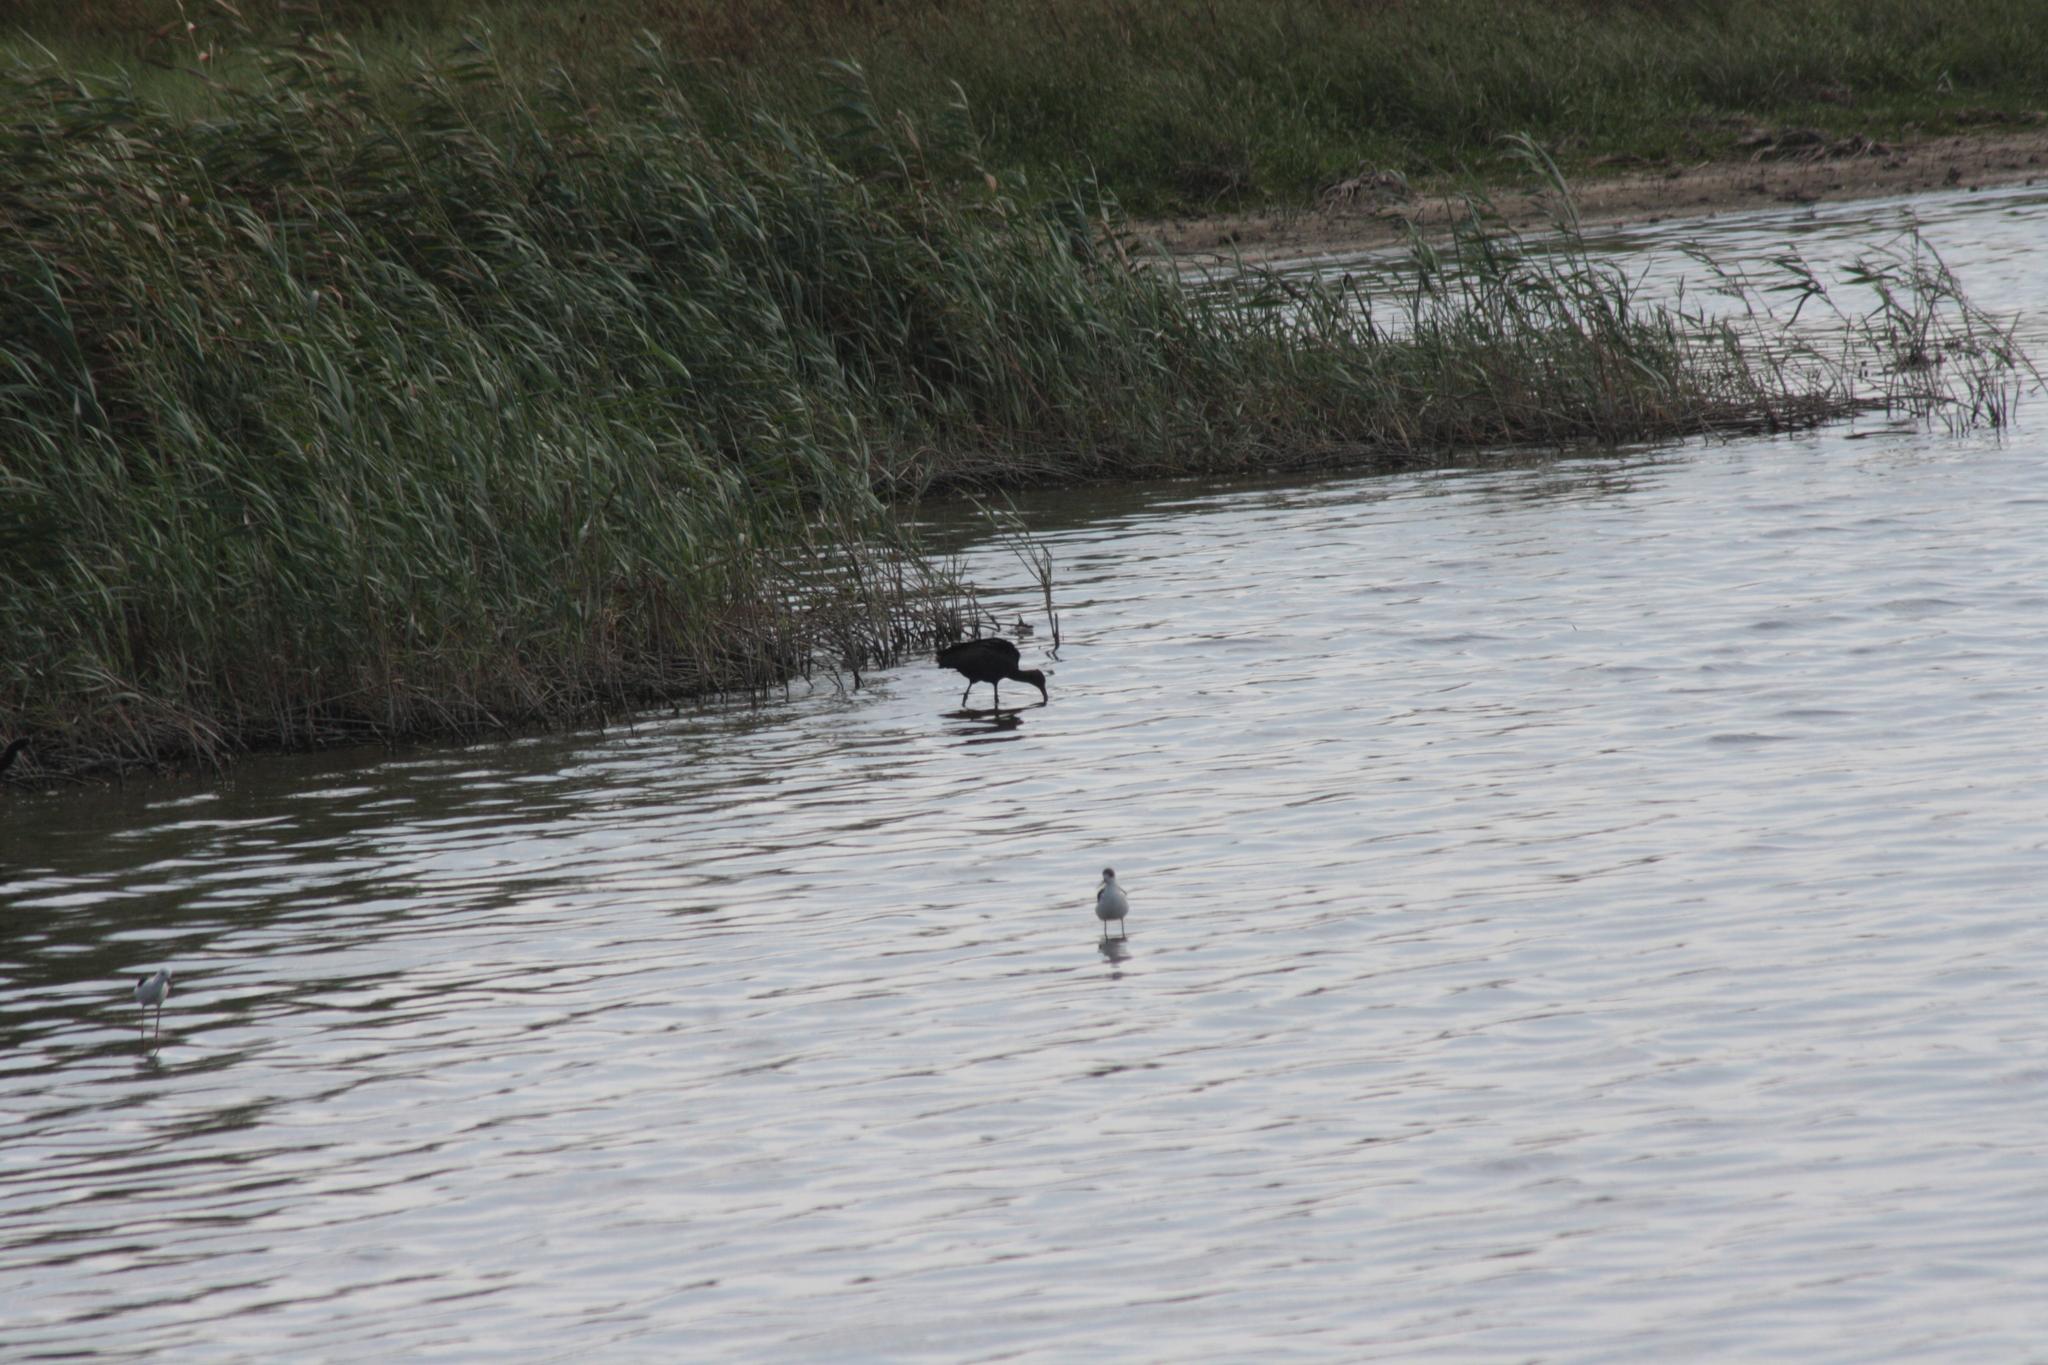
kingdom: Animalia
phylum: Chordata
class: Aves
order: Pelecaniformes
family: Threskiornithidae
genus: Plegadis
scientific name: Plegadis falcinellus
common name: Glossy ibis
